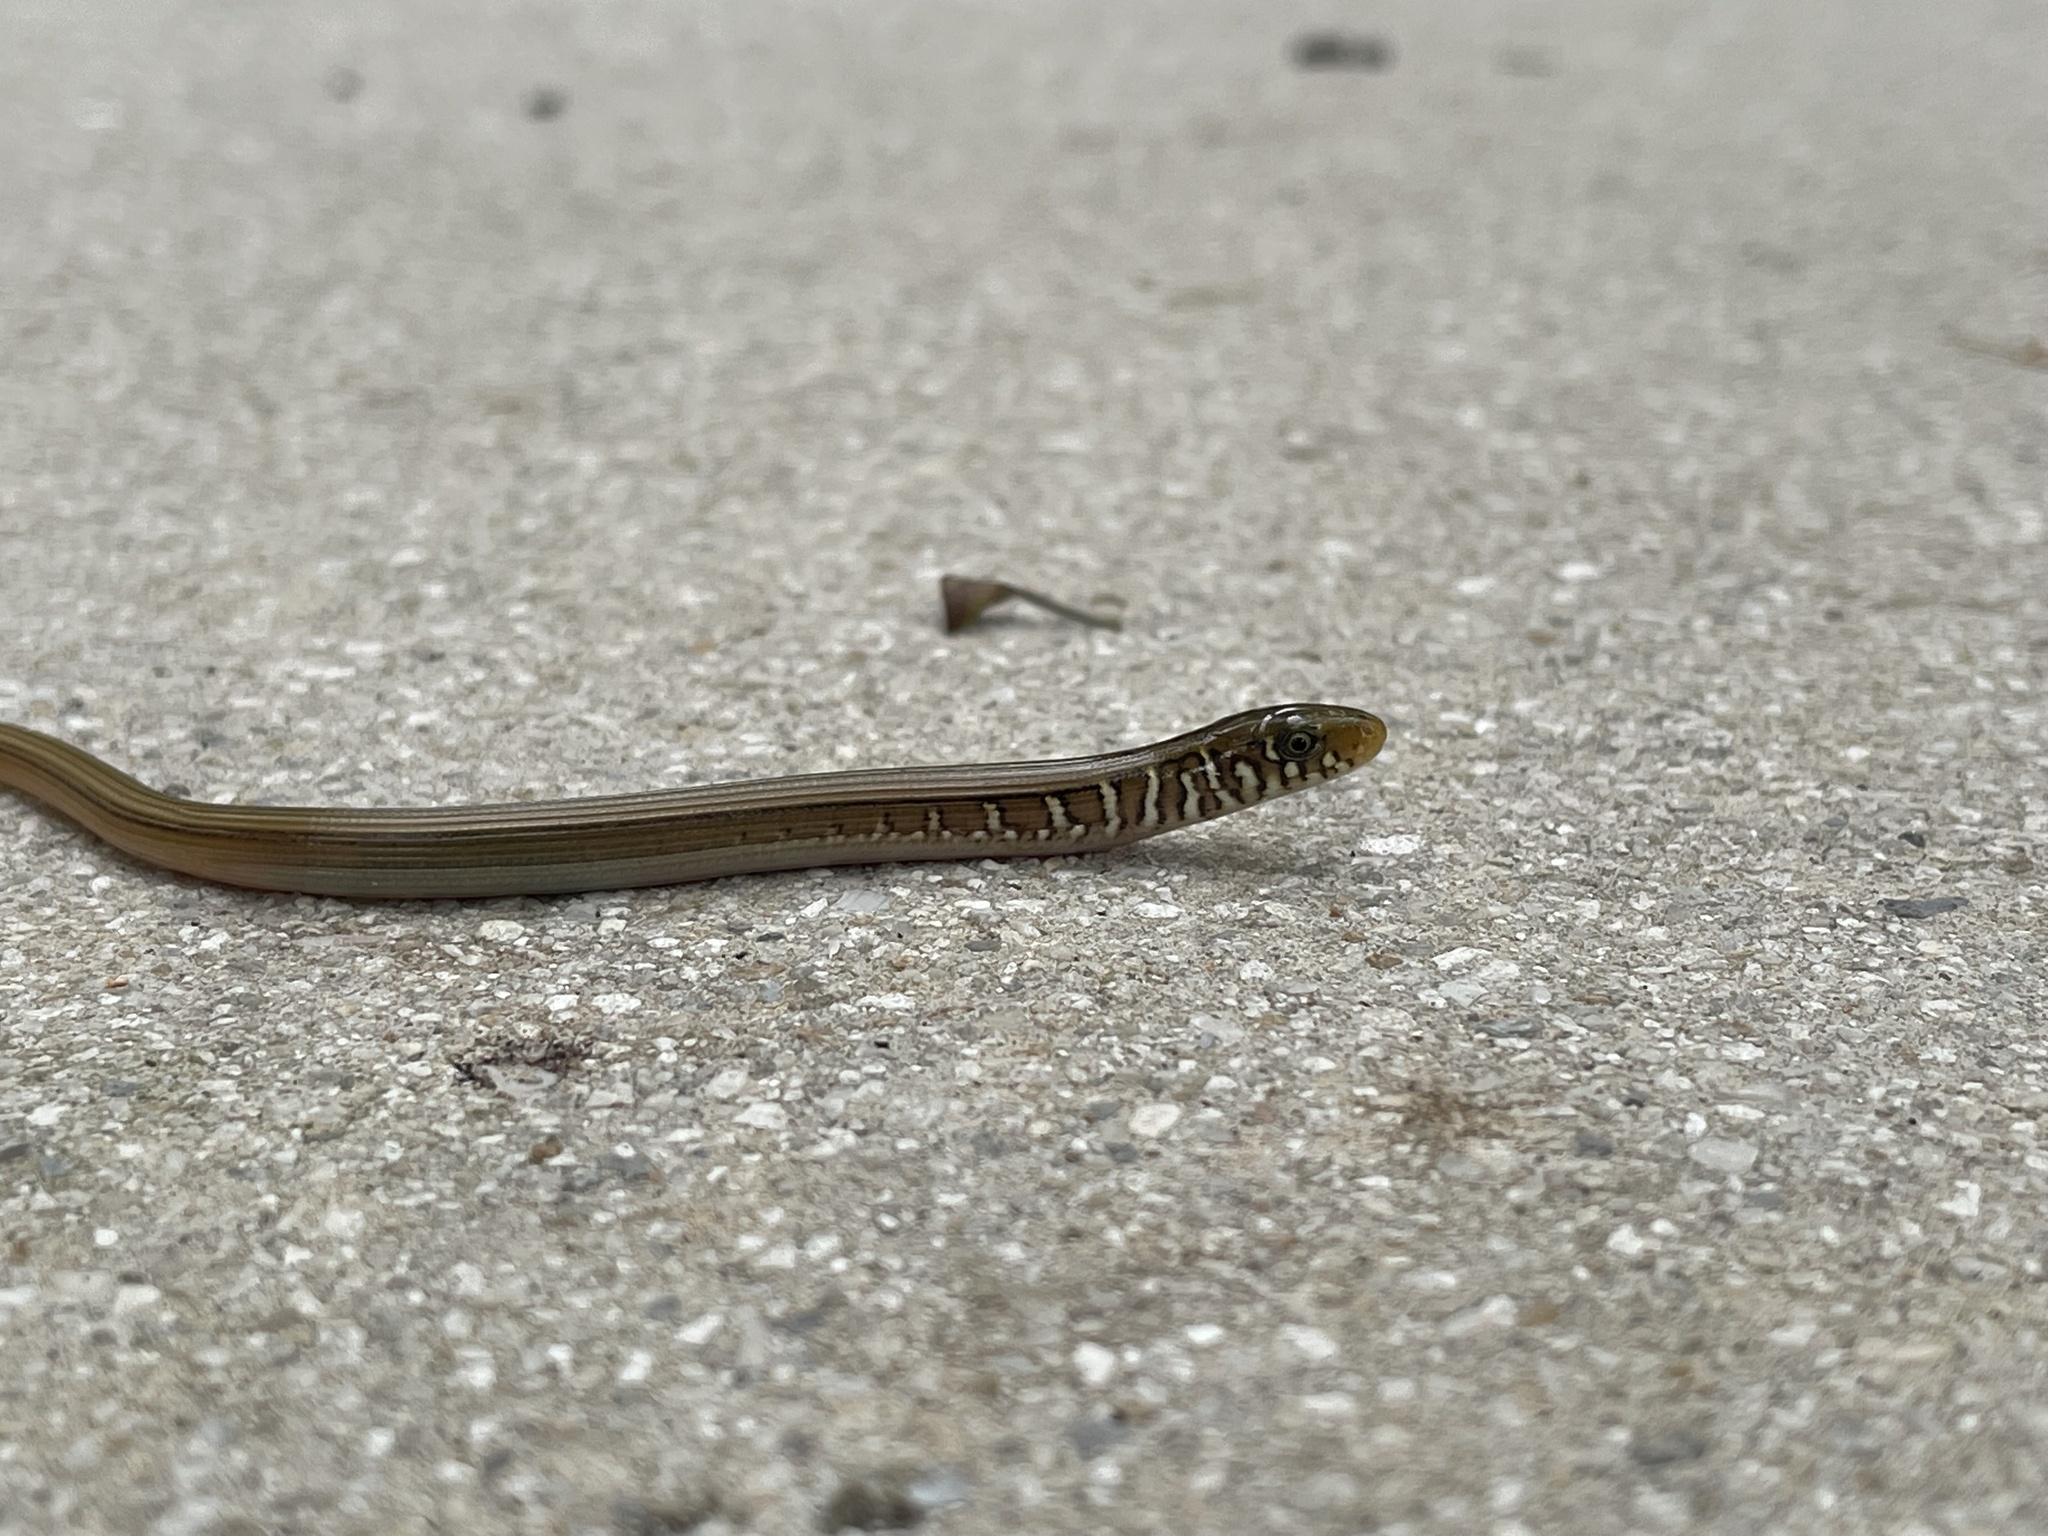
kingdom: Animalia
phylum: Chordata
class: Squamata
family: Anguidae
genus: Ophisaurus
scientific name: Ophisaurus ventralis
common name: Eastern glass lizard
